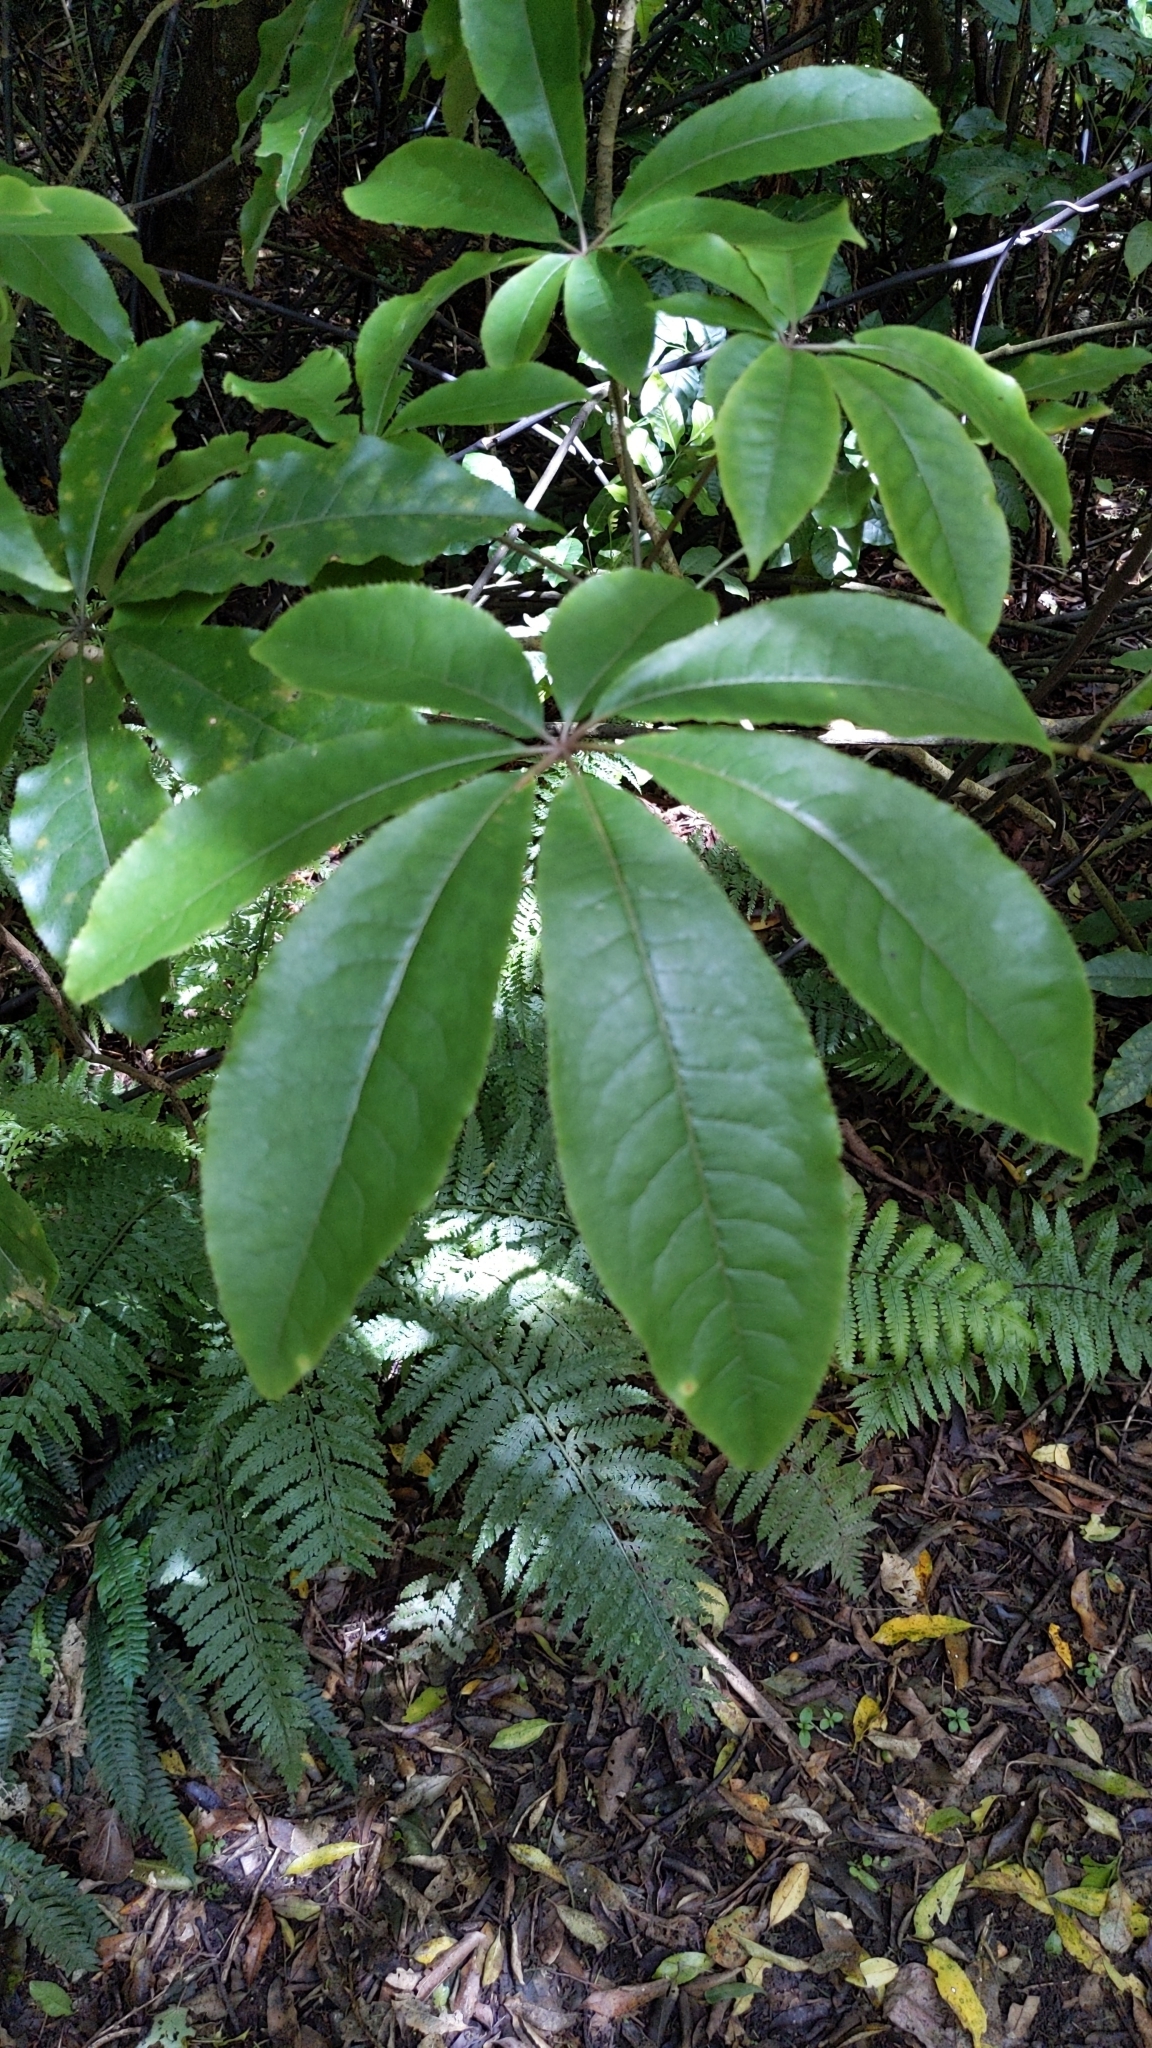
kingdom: Plantae
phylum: Tracheophyta
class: Magnoliopsida
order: Apiales
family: Araliaceae
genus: Schefflera
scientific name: Schefflera digitata
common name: Pate
